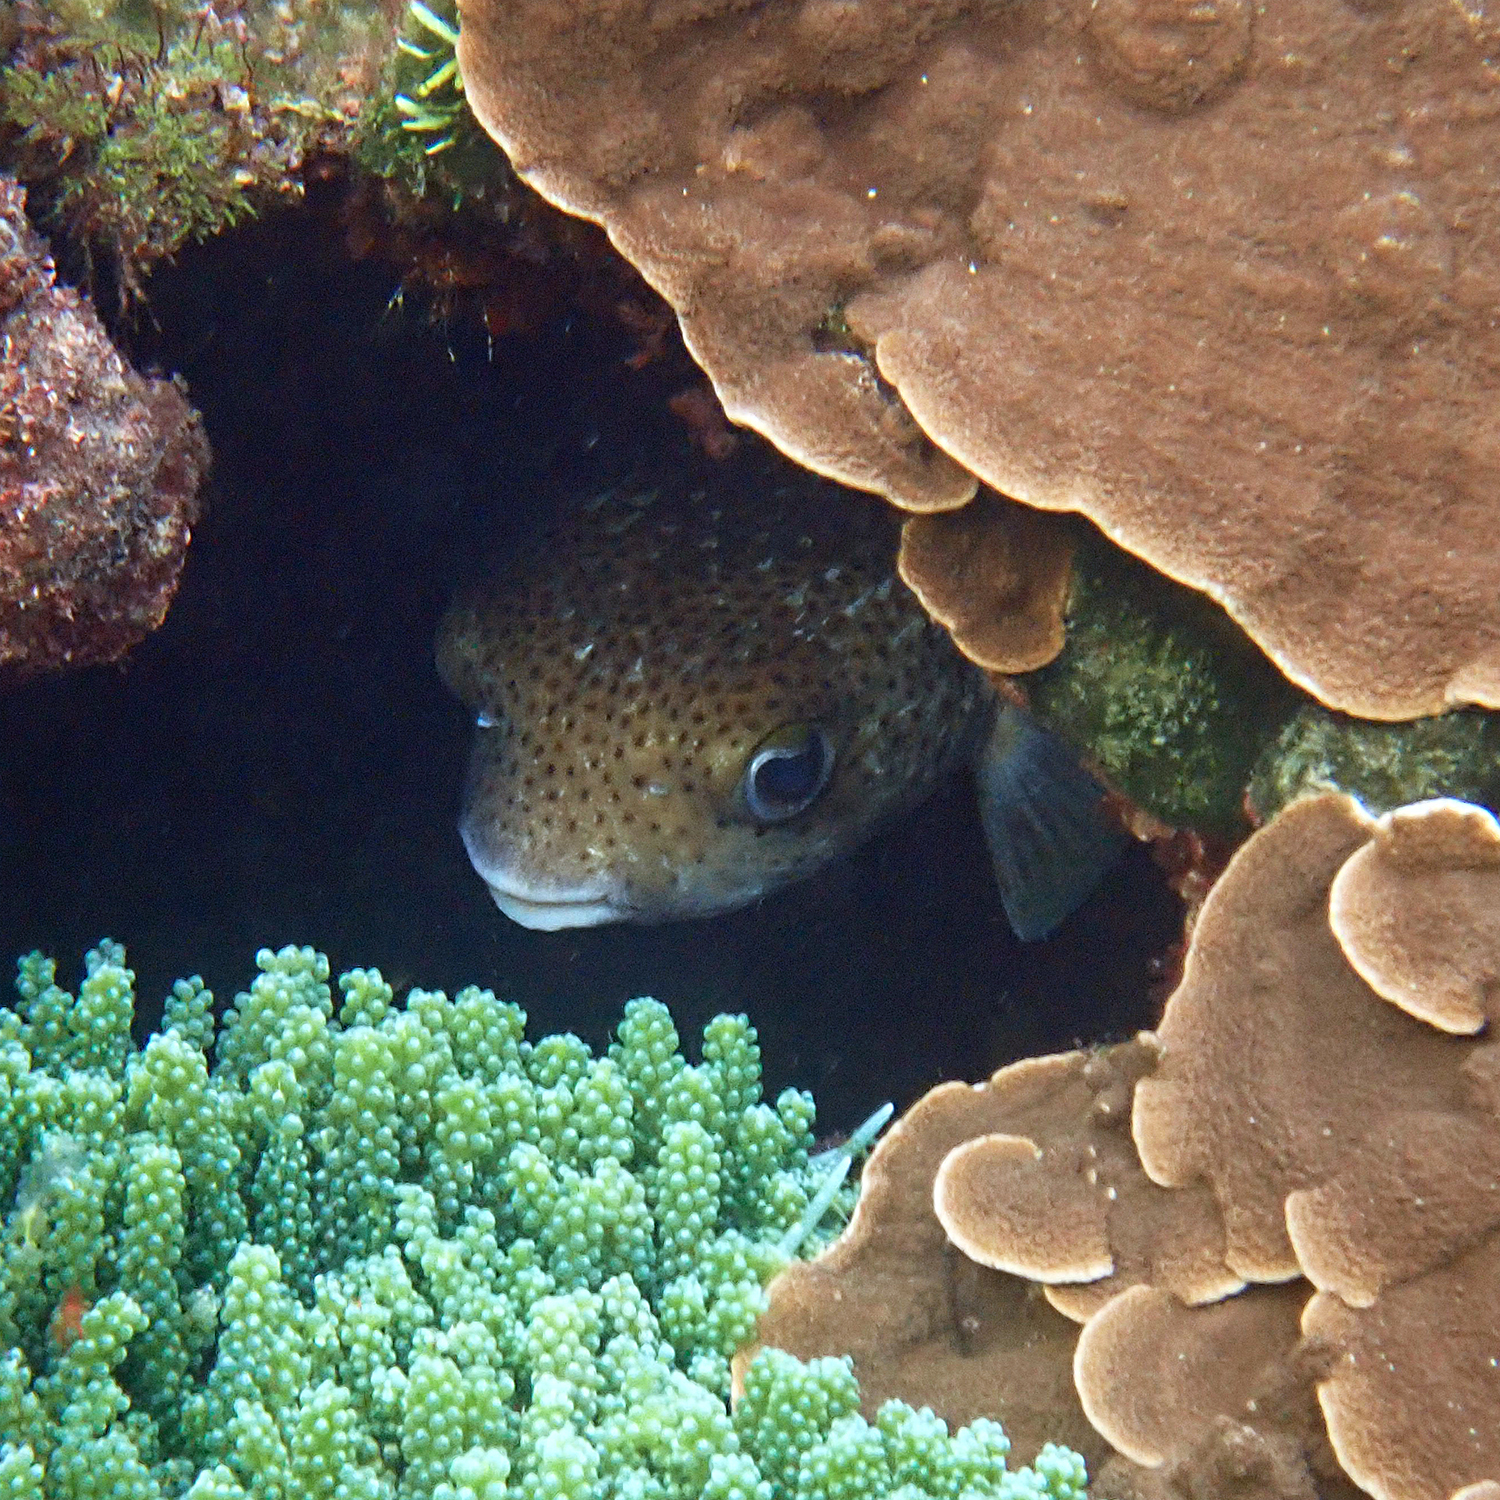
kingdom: Animalia
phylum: Chordata
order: Tetraodontiformes
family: Diodontidae
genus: Diodon
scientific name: Diodon hystrix
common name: Giant porcupinefish
